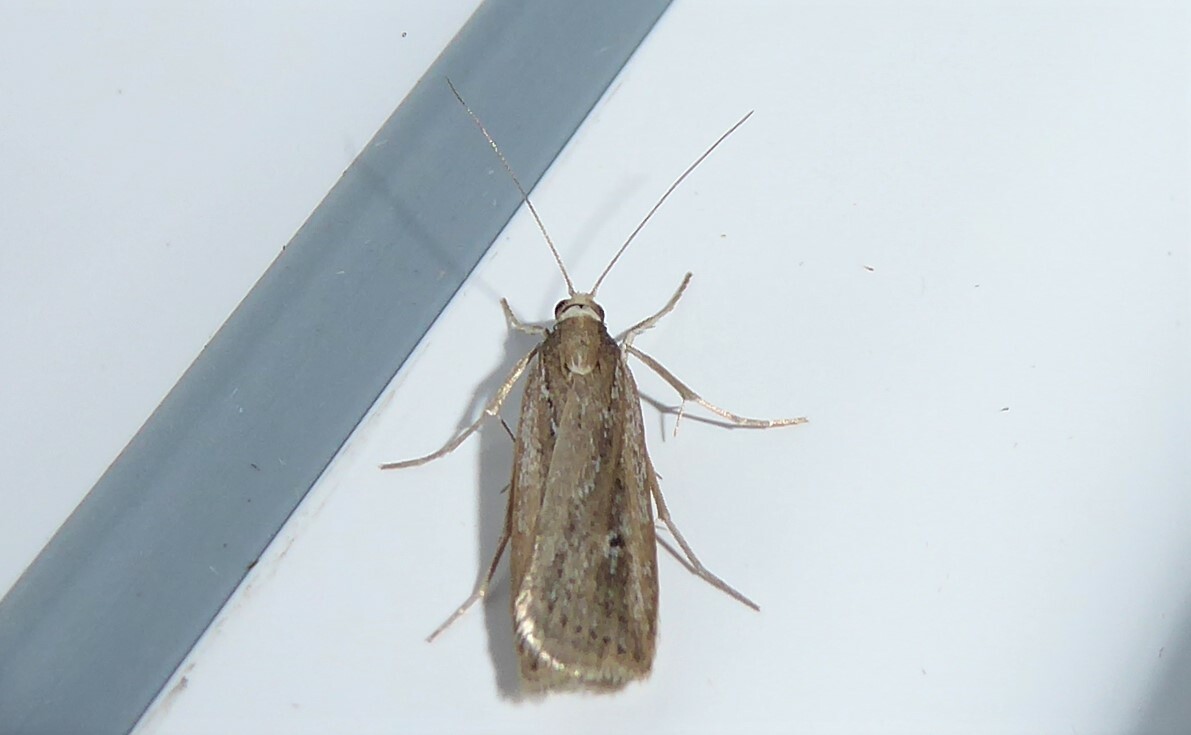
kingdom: Animalia
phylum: Arthropoda
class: Insecta
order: Lepidoptera
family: Crambidae
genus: Eudonia
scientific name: Eudonia sabulosella
